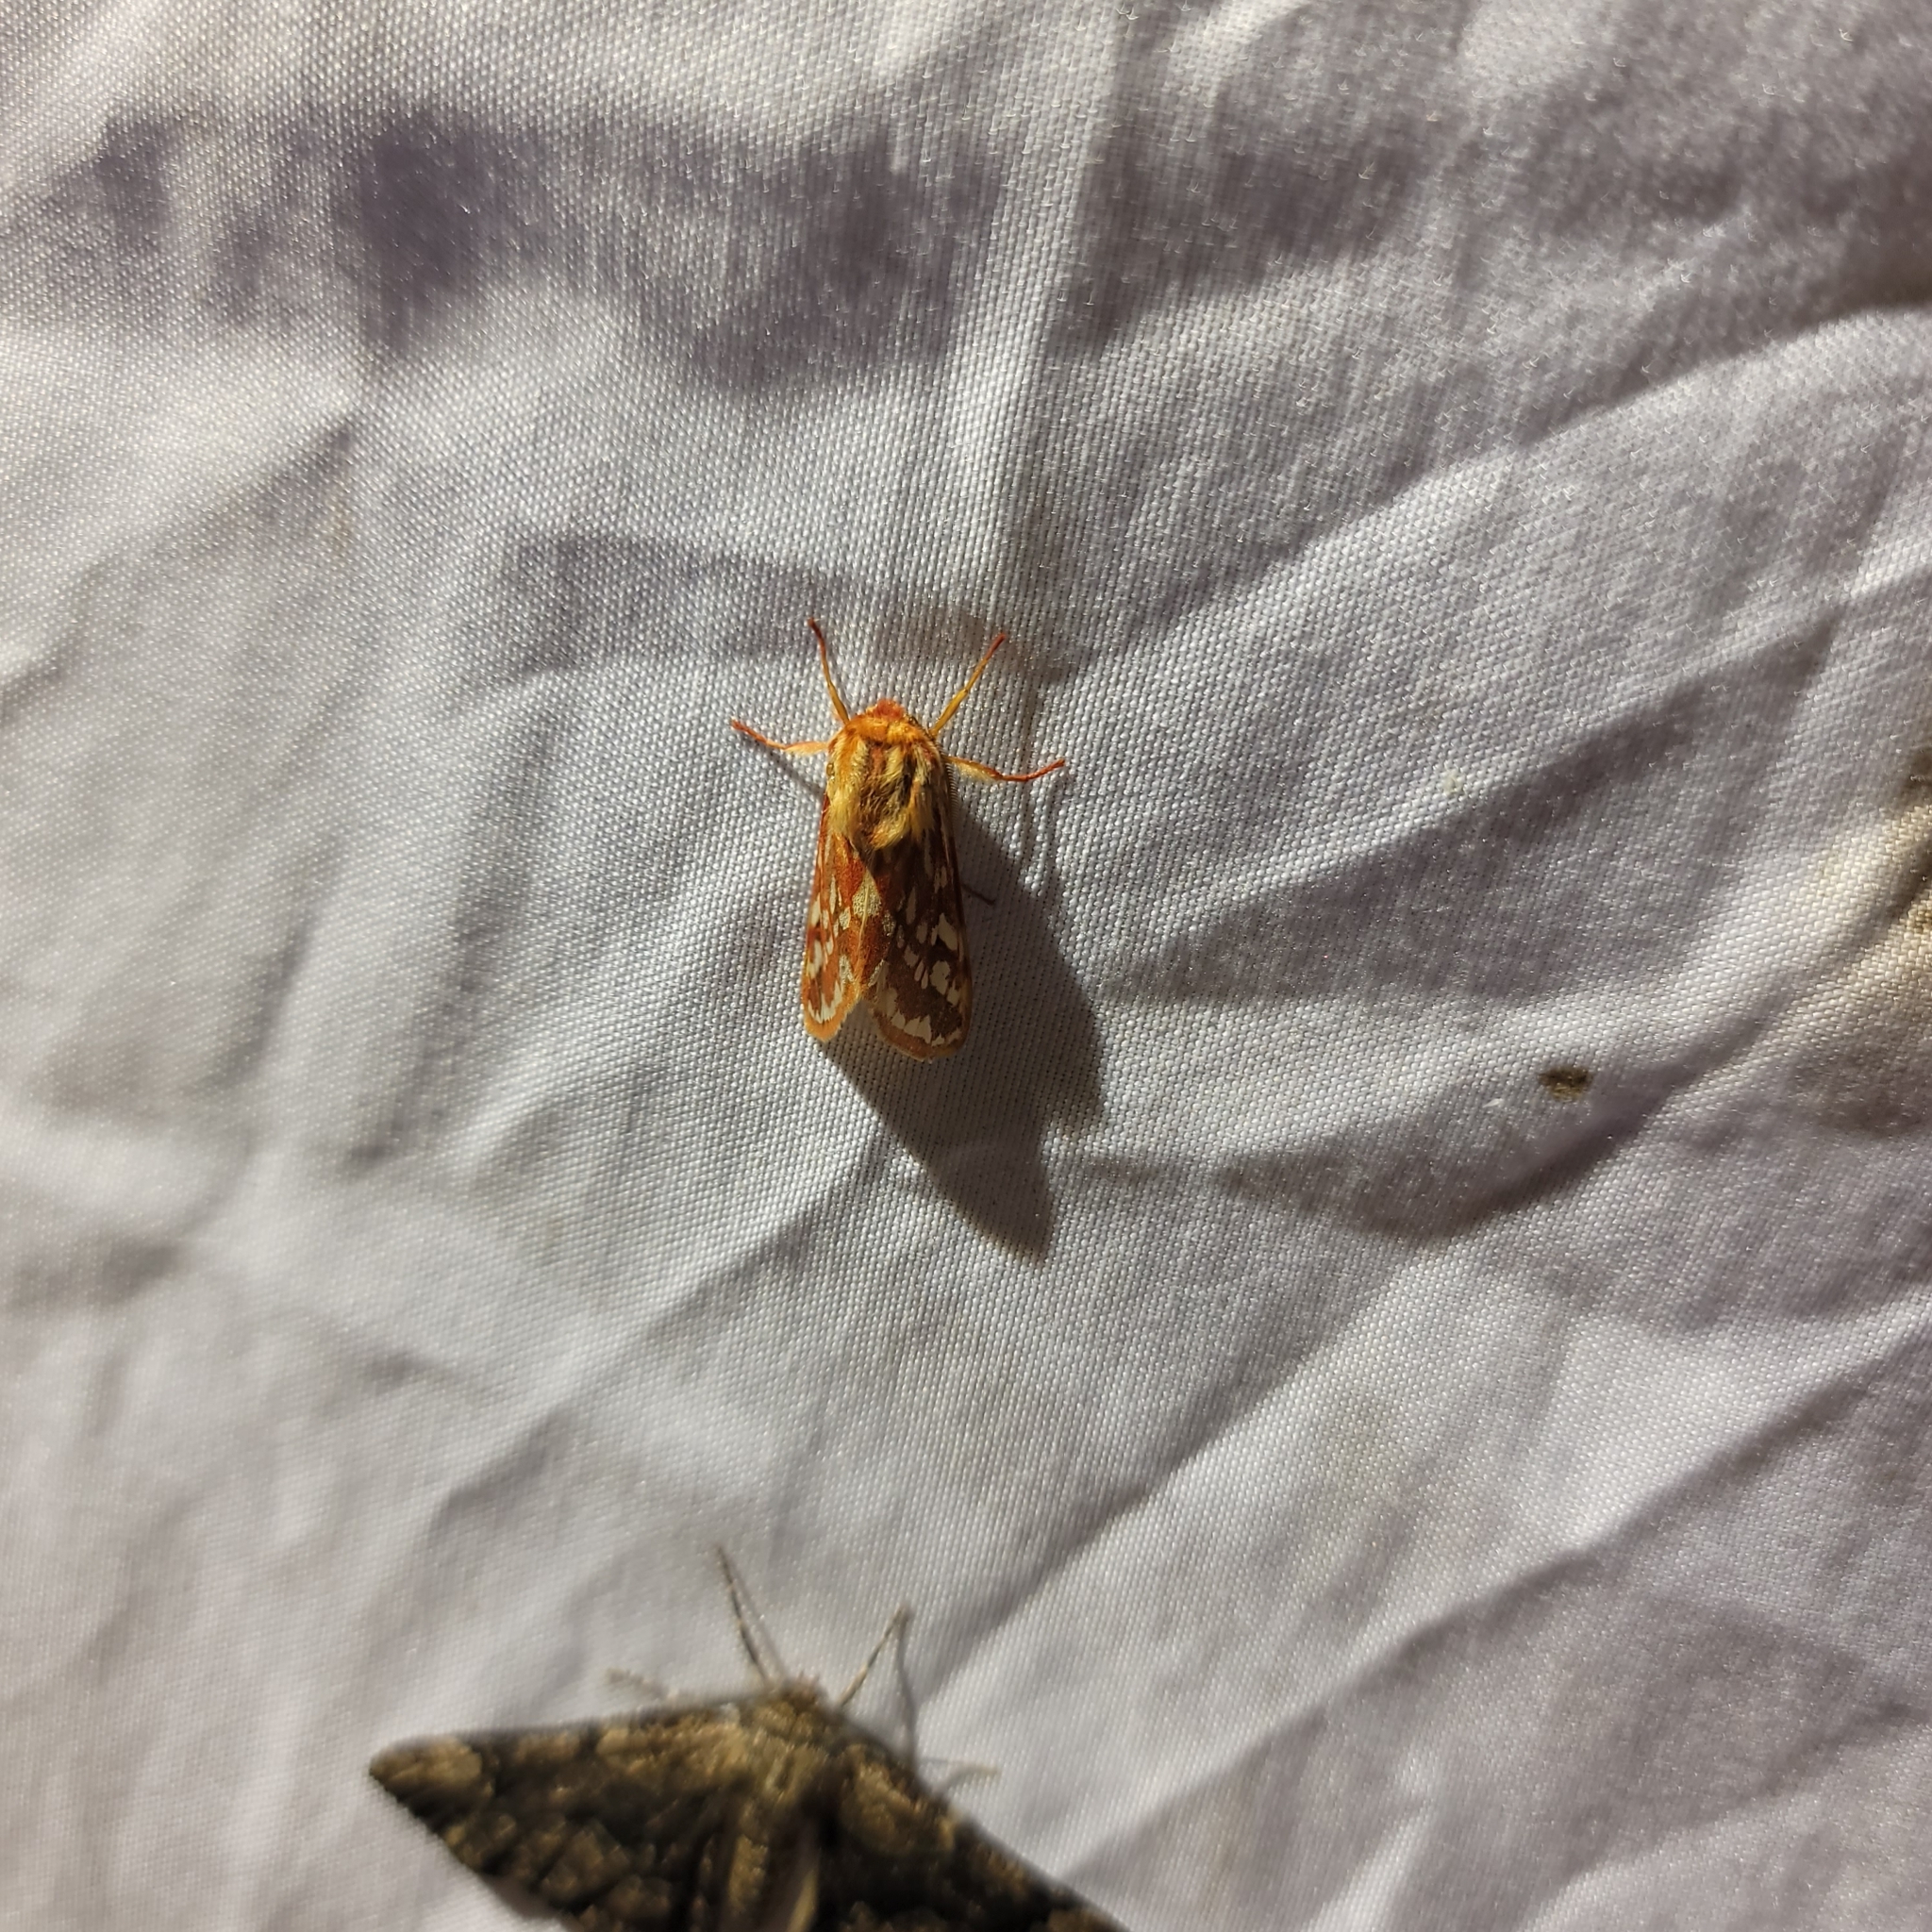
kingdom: Animalia
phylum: Arthropoda
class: Insecta
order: Lepidoptera
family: Erebidae
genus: Lophocampa
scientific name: Lophocampa roseata
